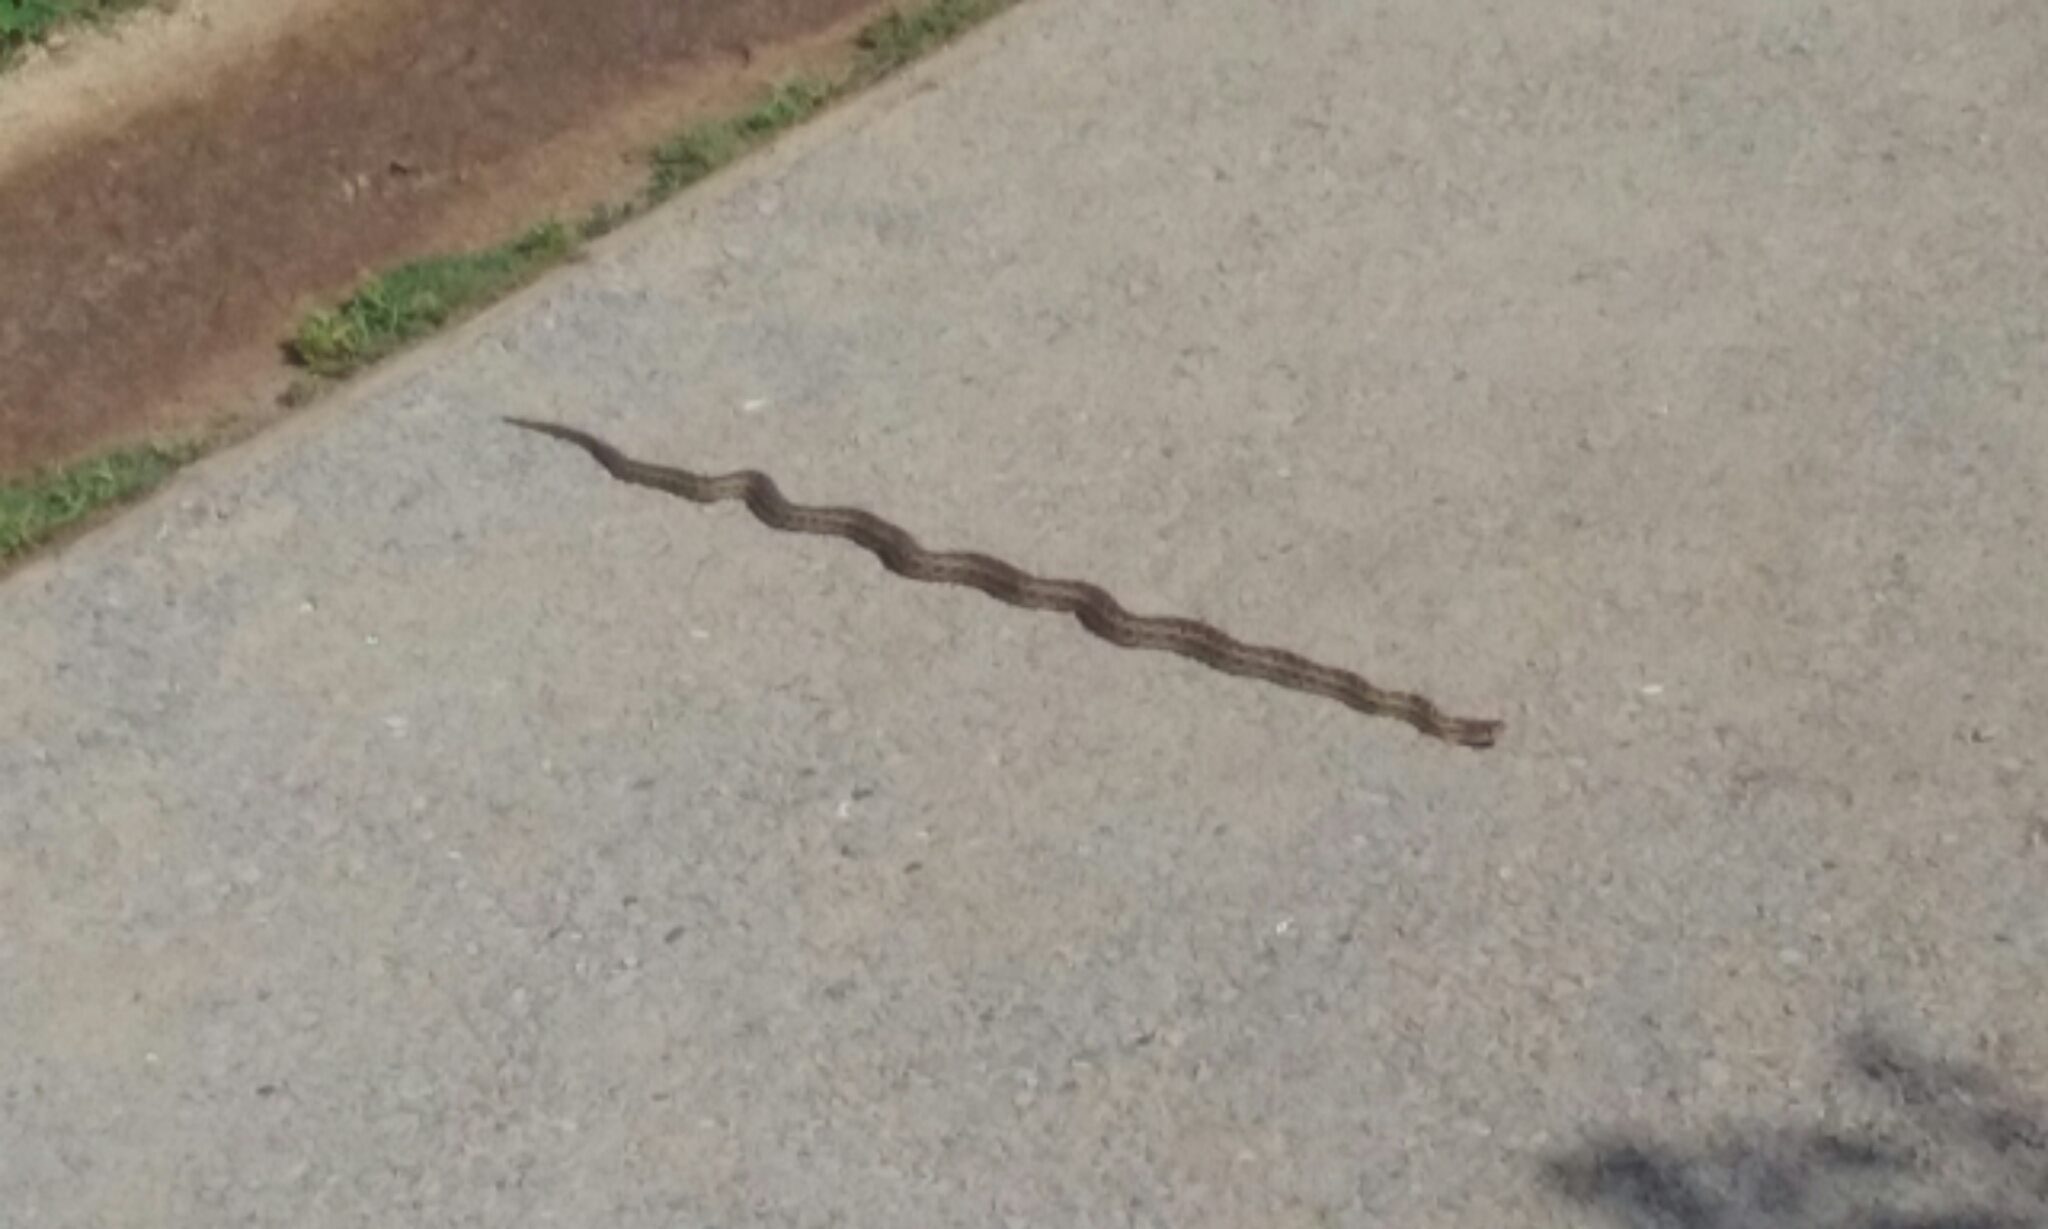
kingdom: Animalia
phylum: Chordata
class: Squamata
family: Colubridae
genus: Pituophis
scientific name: Pituophis catenifer
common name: Gopher snake
